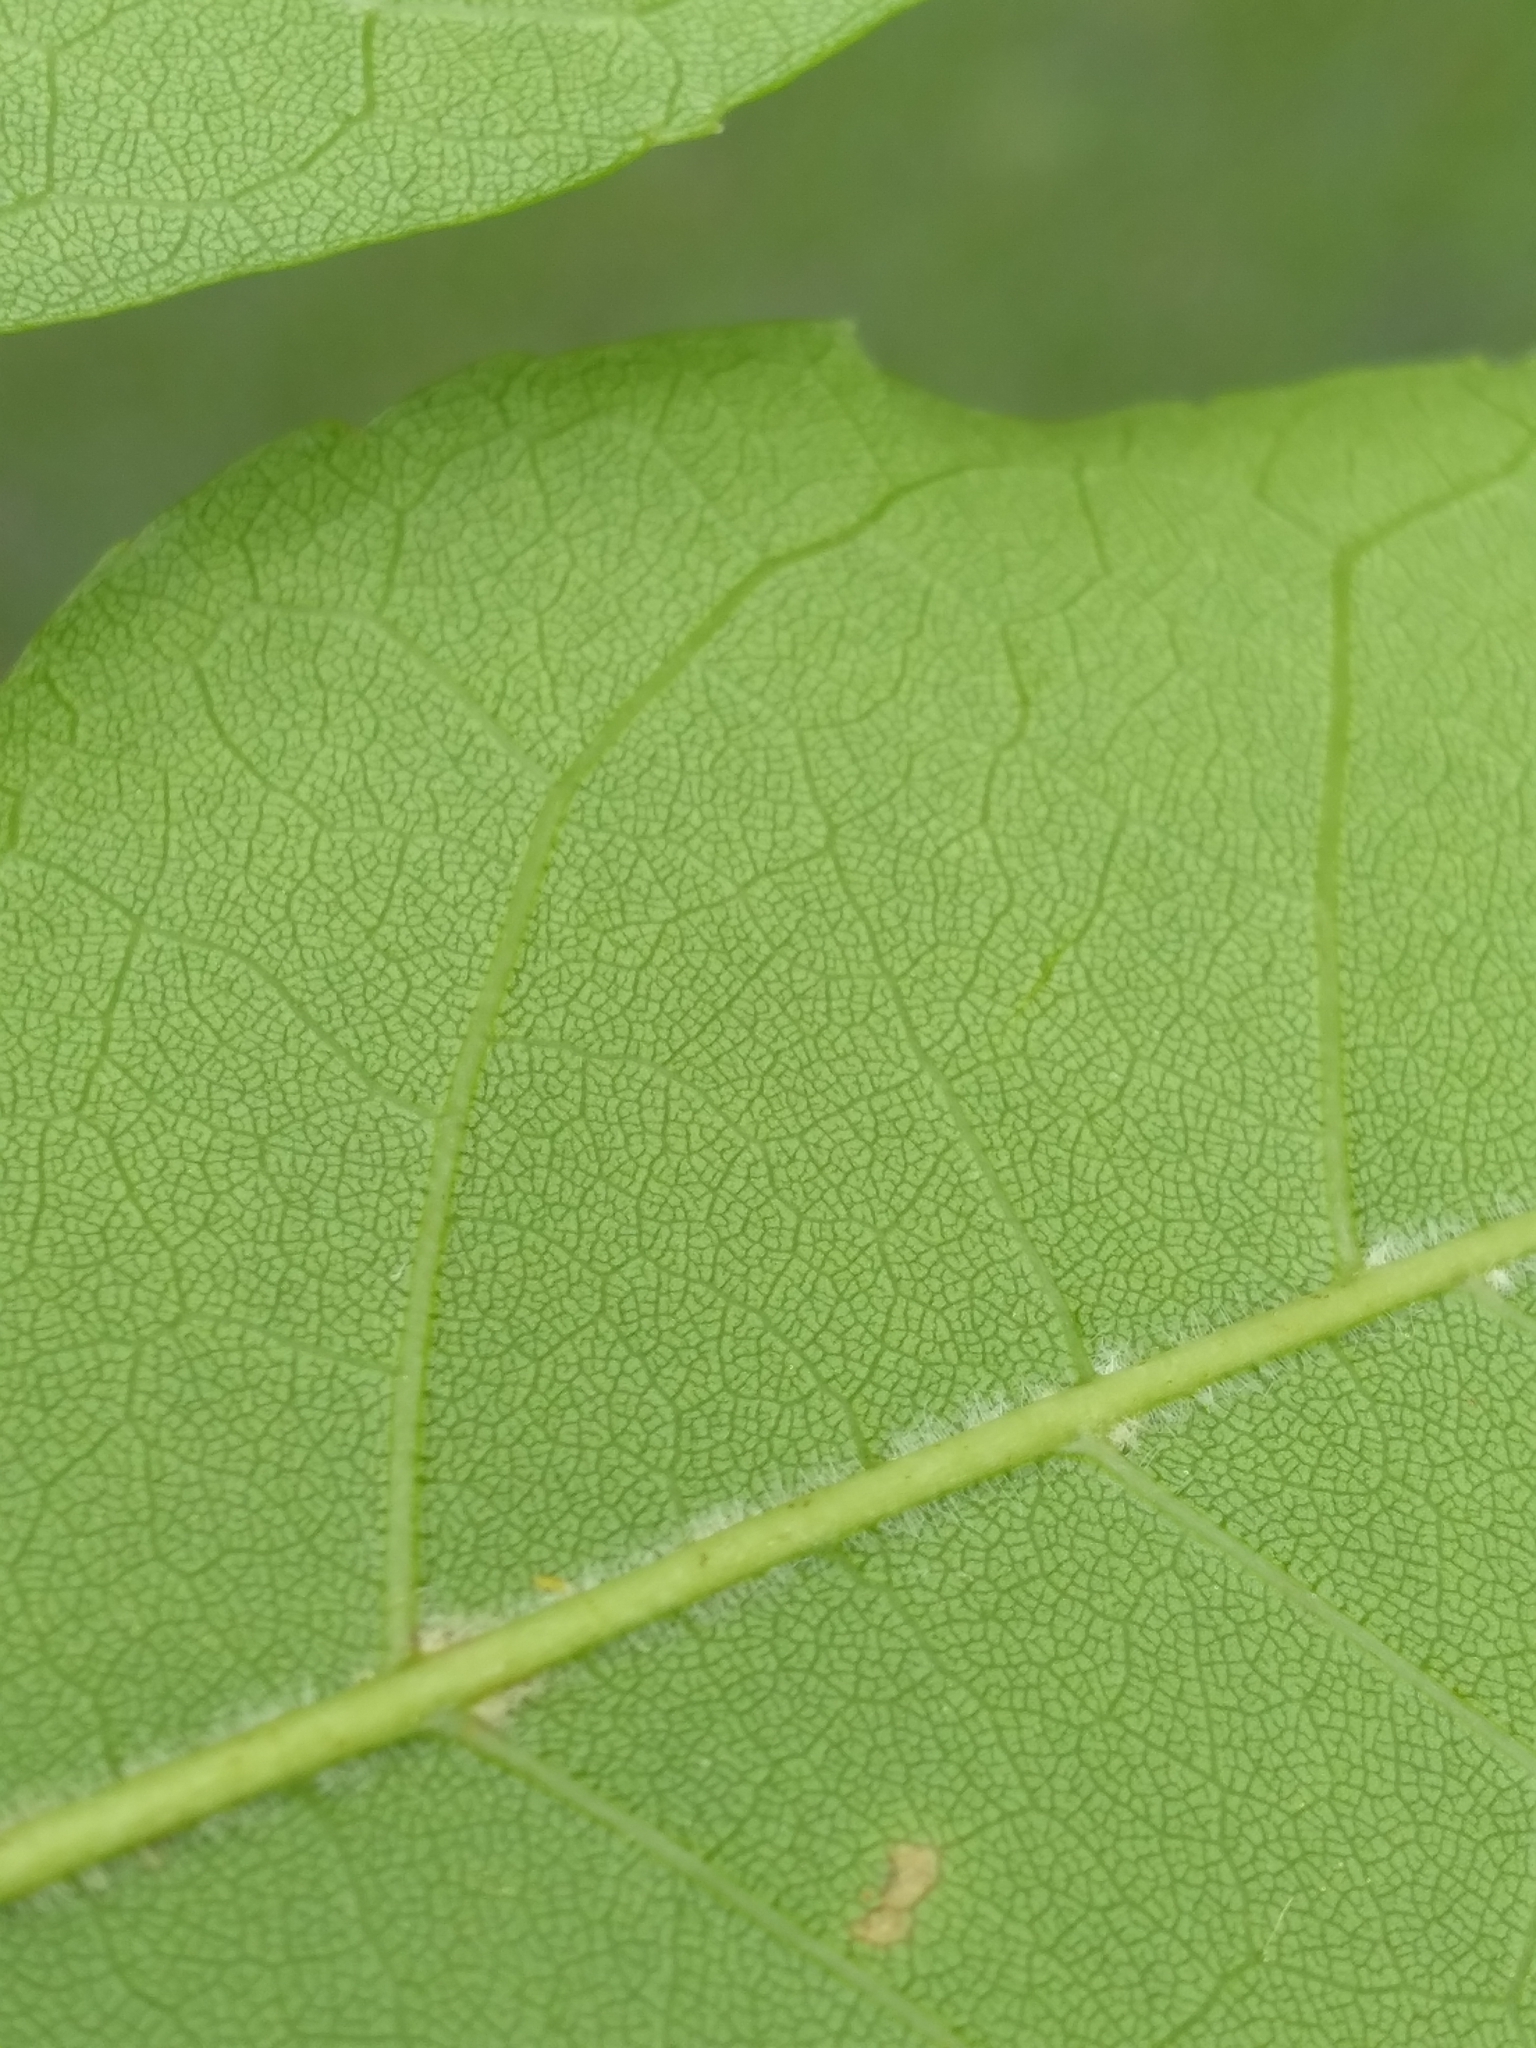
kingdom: Plantae
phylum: Tracheophyta
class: Magnoliopsida
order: Lamiales
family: Oleaceae
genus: Fraxinus
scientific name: Fraxinus caroliniana
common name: Carolina ash
